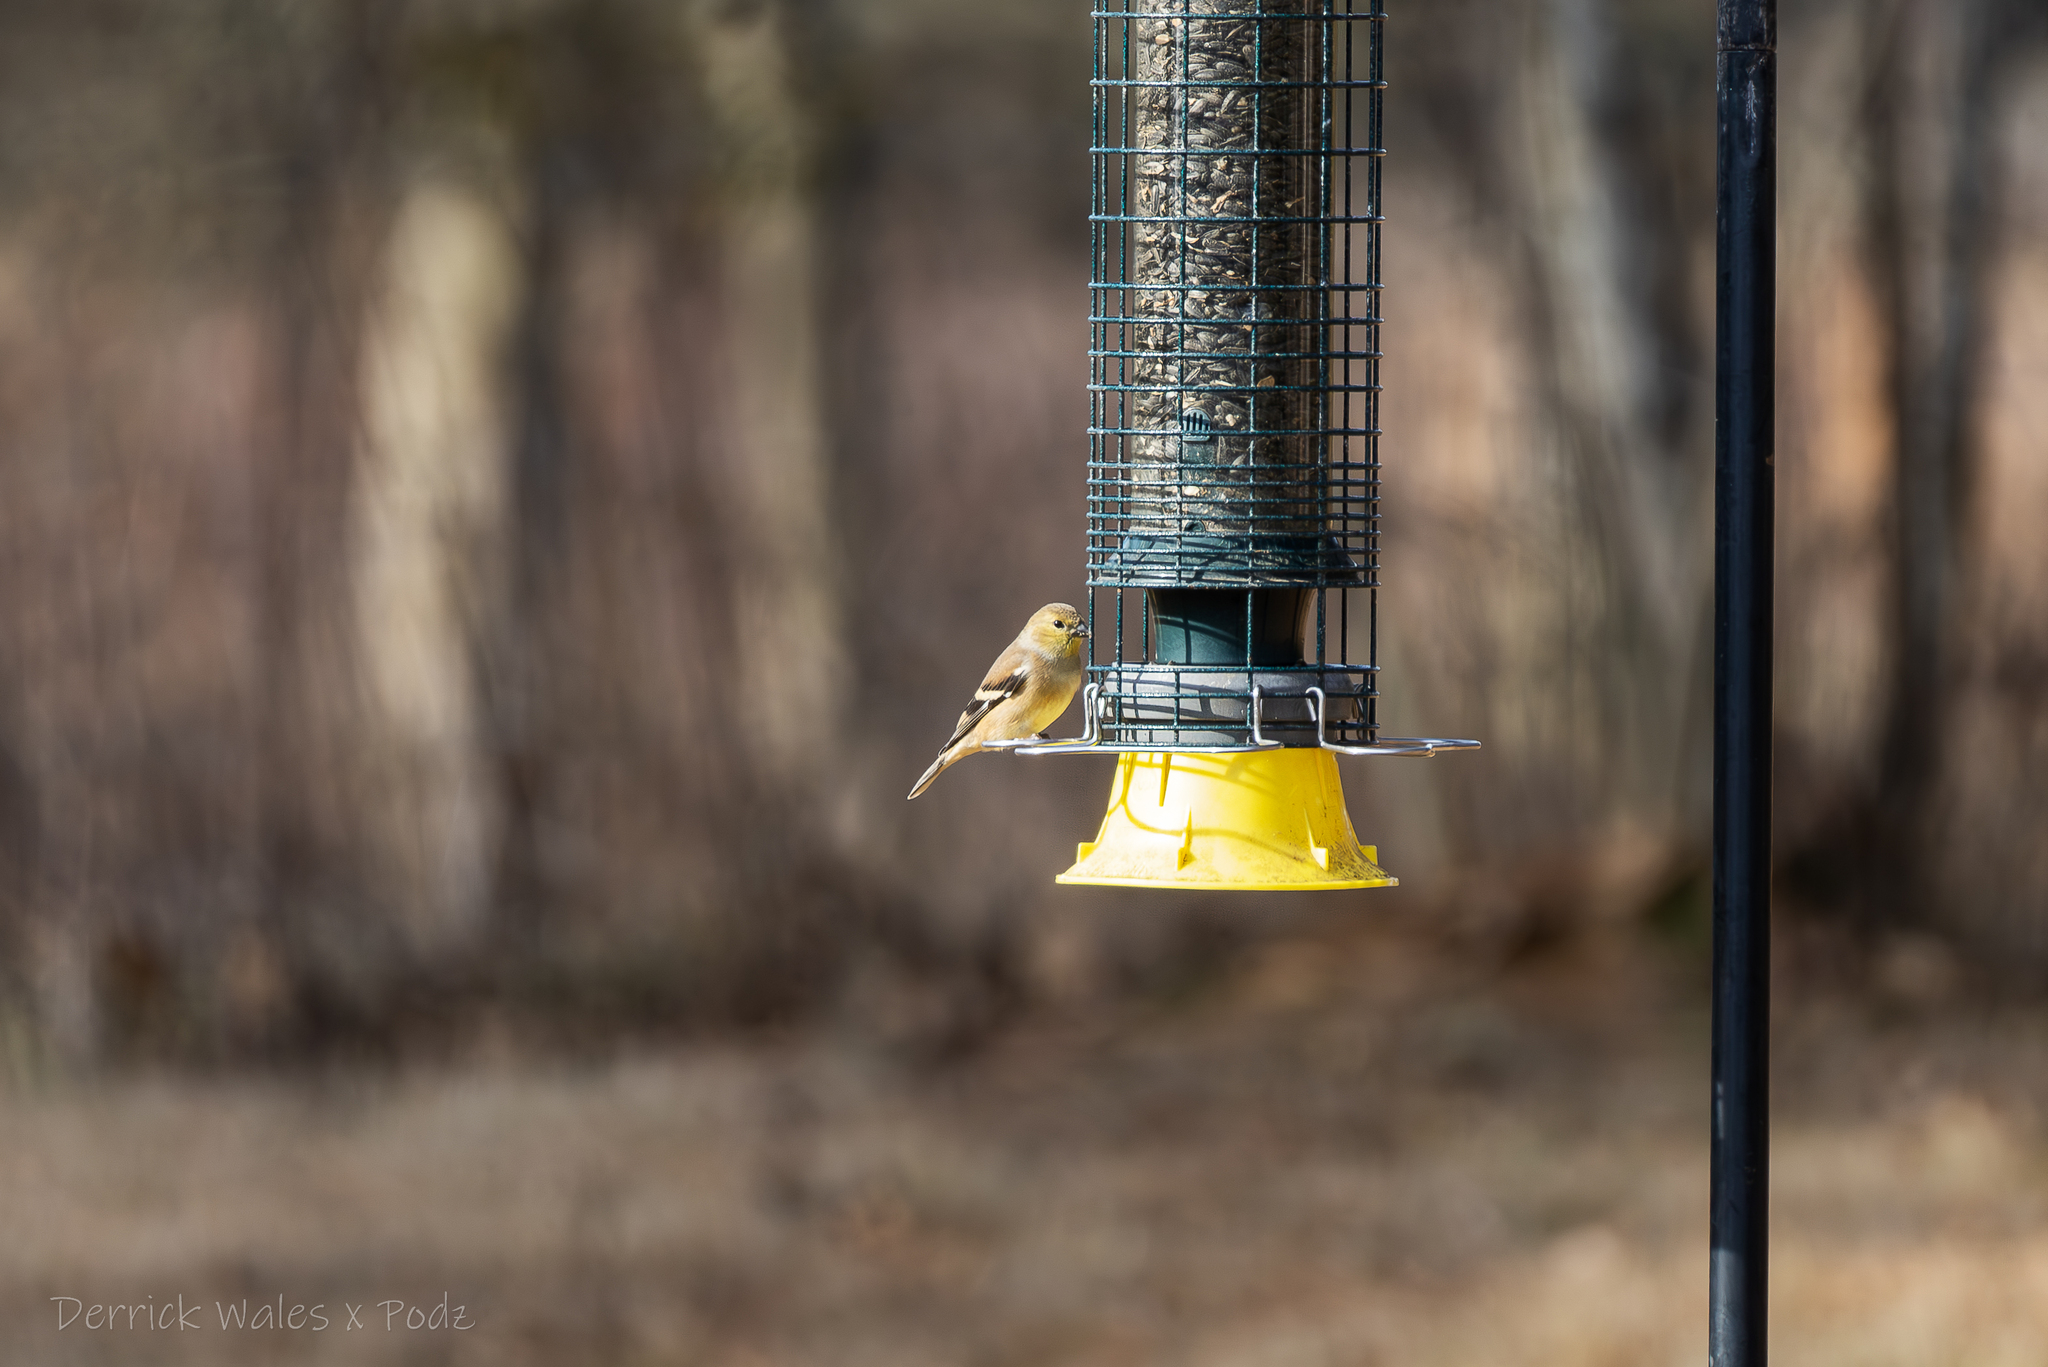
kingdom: Animalia
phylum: Chordata
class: Aves
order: Passeriformes
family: Fringillidae
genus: Spinus
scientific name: Spinus tristis
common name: American goldfinch
